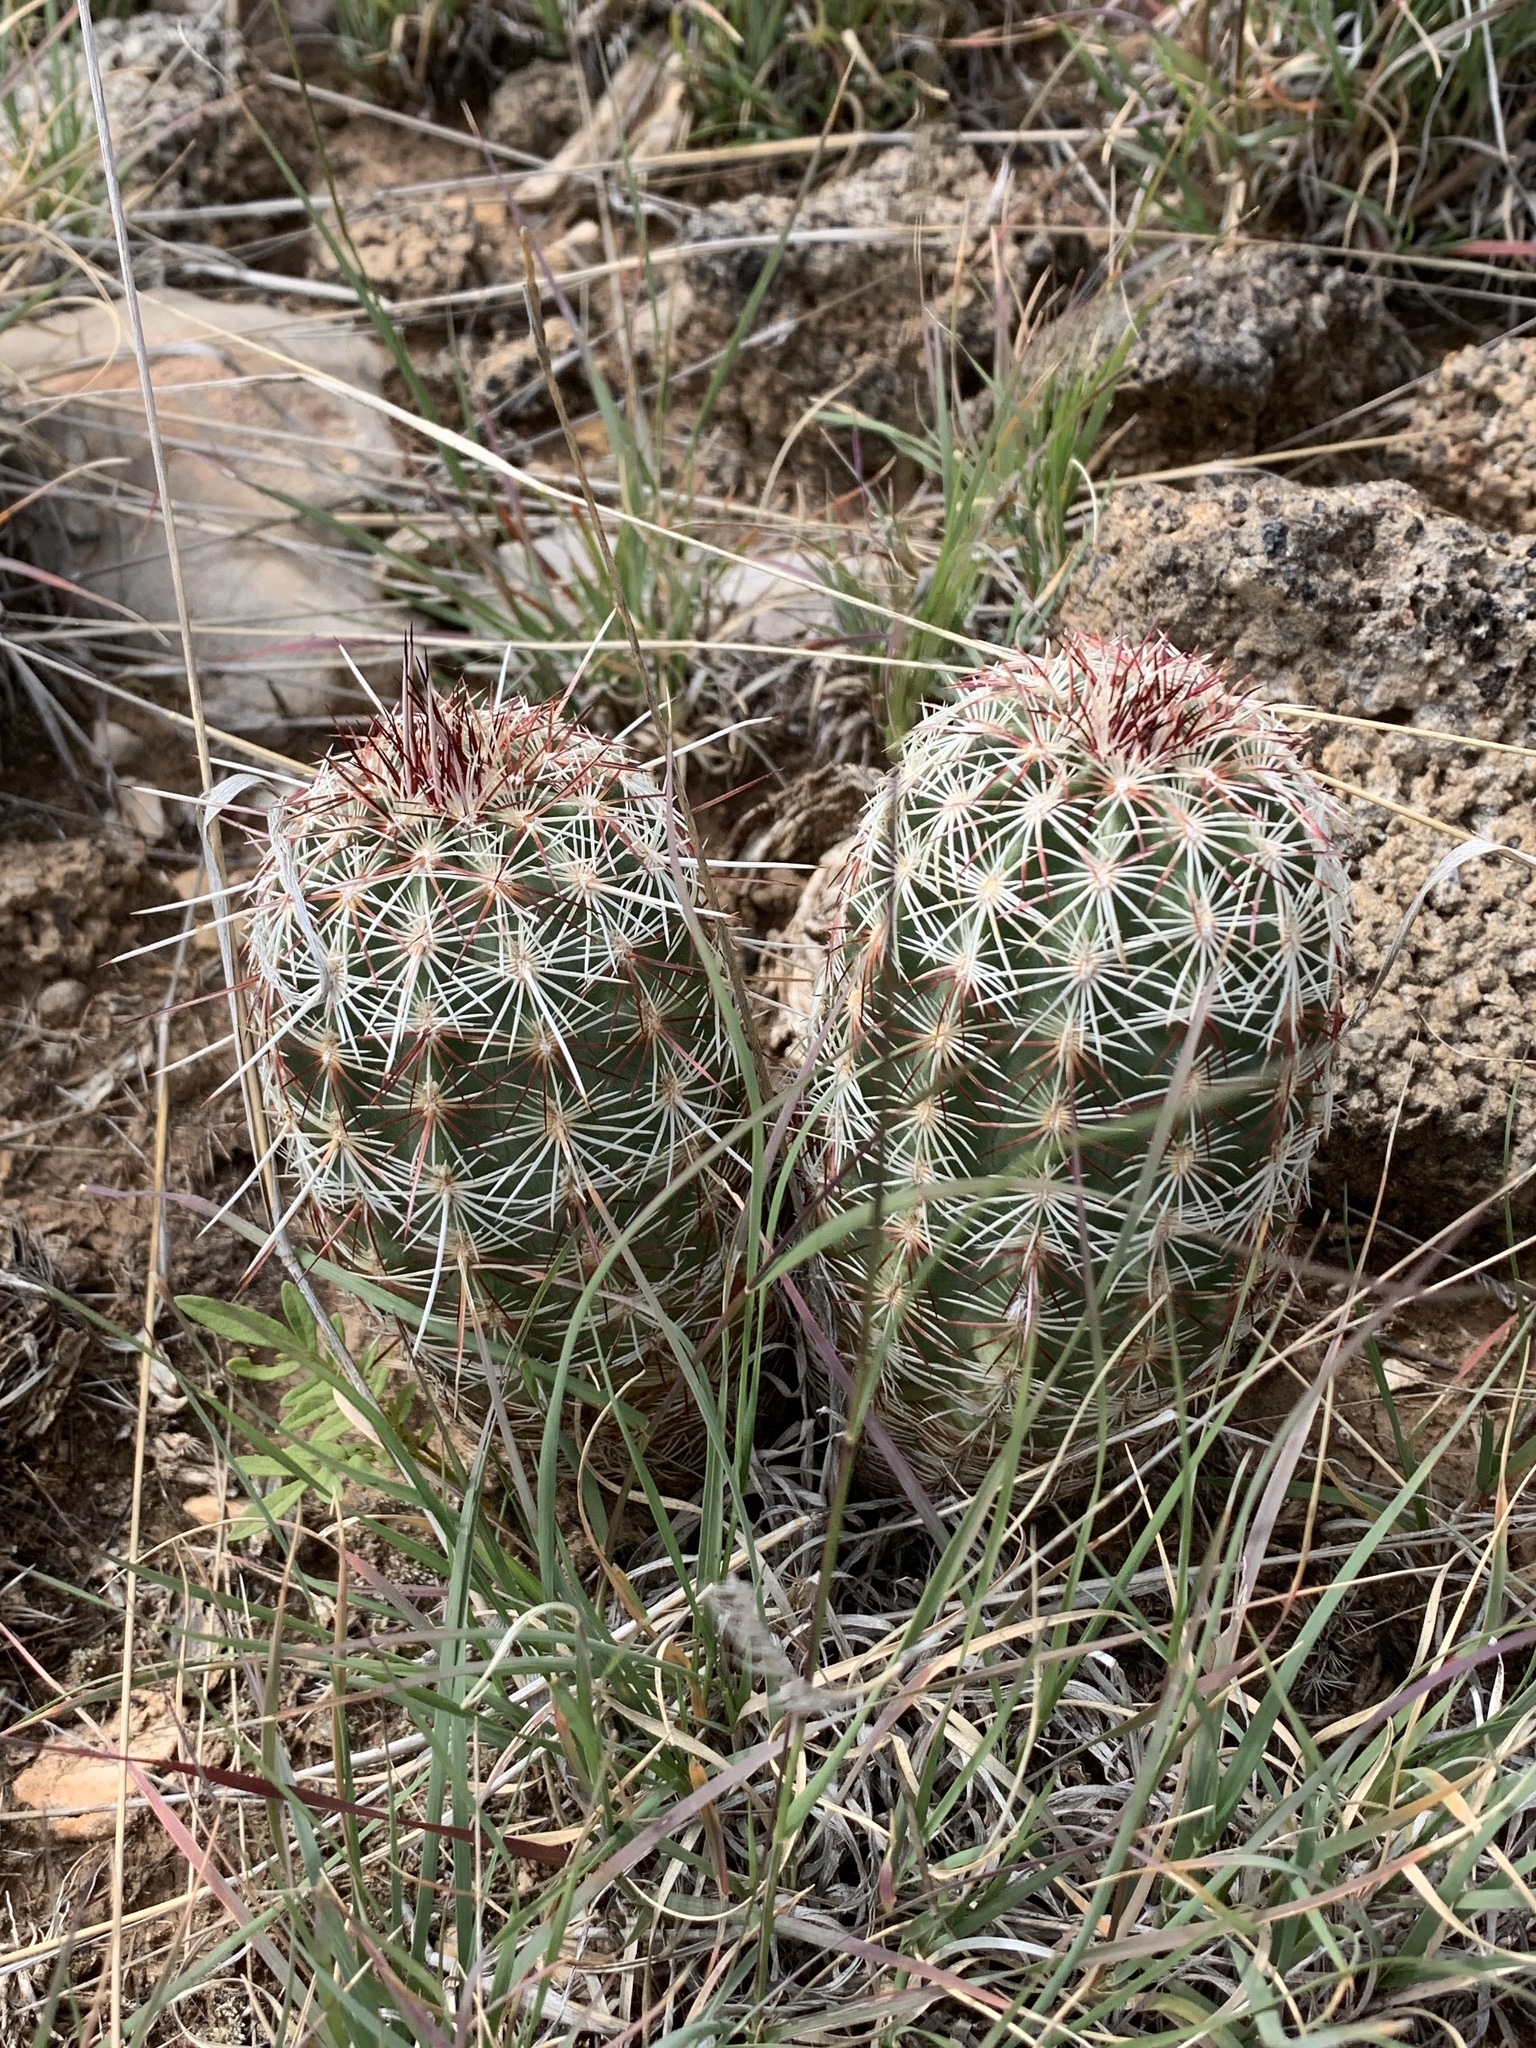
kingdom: Plantae
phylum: Tracheophyta
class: Magnoliopsida
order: Caryophyllales
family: Cactaceae
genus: Echinocereus
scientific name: Echinocereus viridiflorus
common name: Nylon hedgehog cactus
